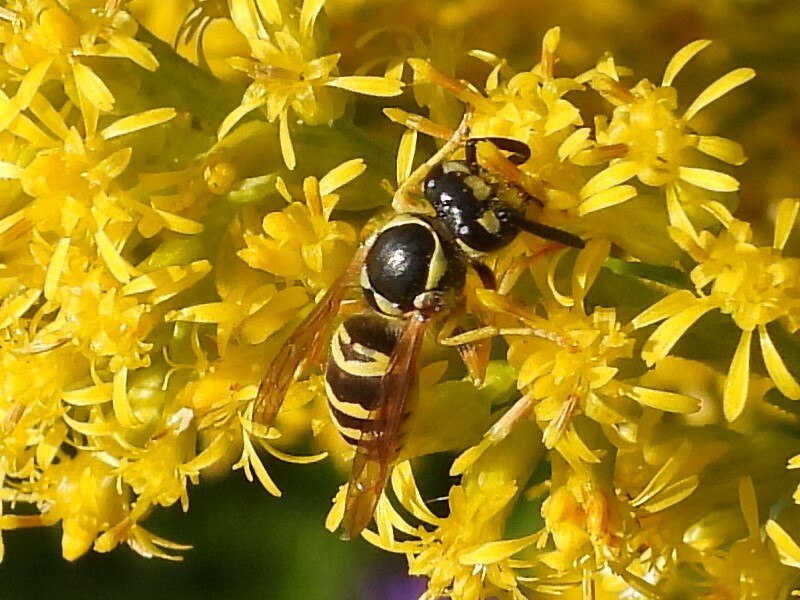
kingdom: Animalia
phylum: Arthropoda
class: Insecta
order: Hymenoptera
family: Vespidae
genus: Vespula
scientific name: Vespula maculifrons
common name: Eastern yellowjacket
